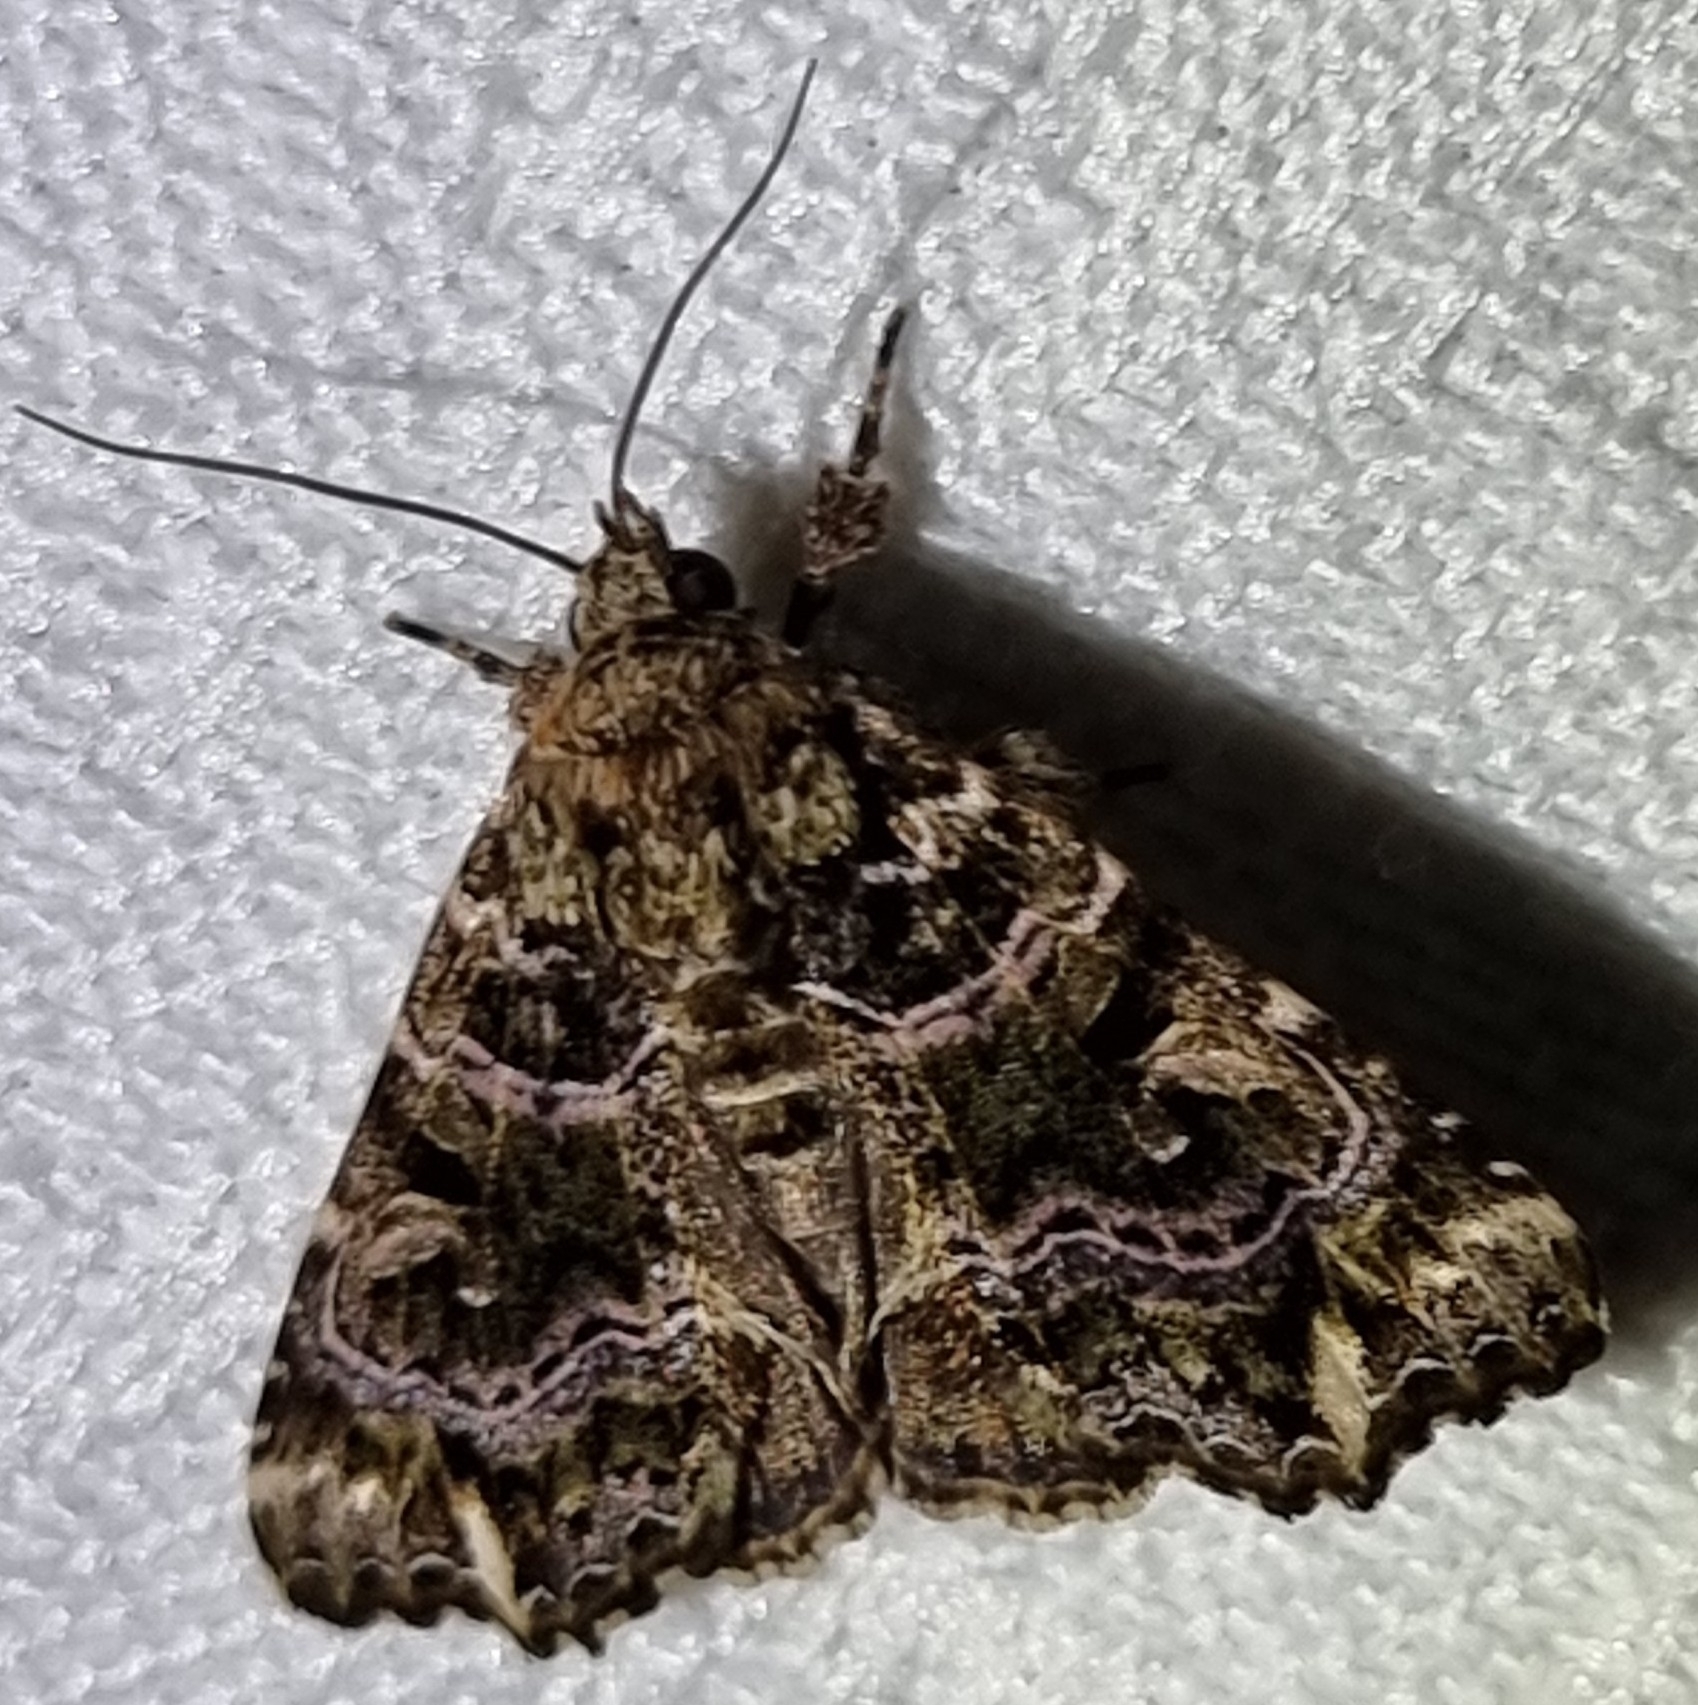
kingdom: Animalia
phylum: Arthropoda
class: Insecta
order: Lepidoptera
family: Noctuidae
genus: Callopistria
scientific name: Callopistria maillardi
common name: Cutworm
